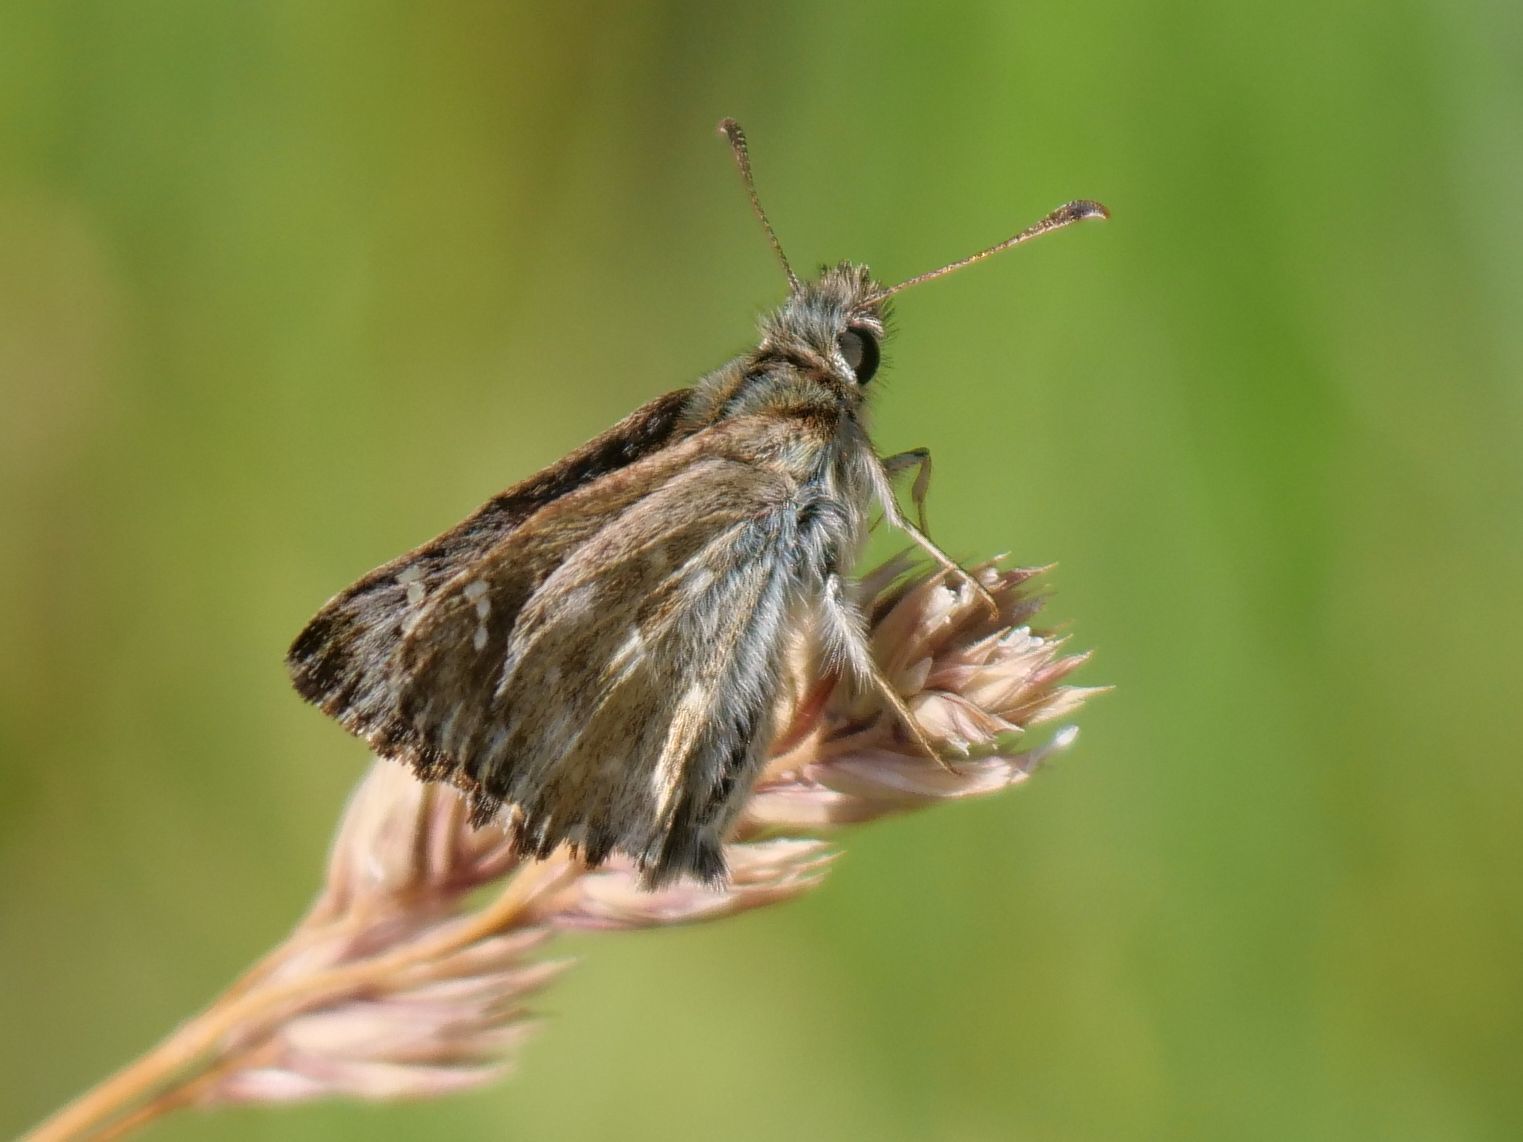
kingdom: Animalia
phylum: Arthropoda
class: Insecta
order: Lepidoptera
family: Hesperiidae
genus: Carcharodus
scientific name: Carcharodus alceae
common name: Mallow skipper
